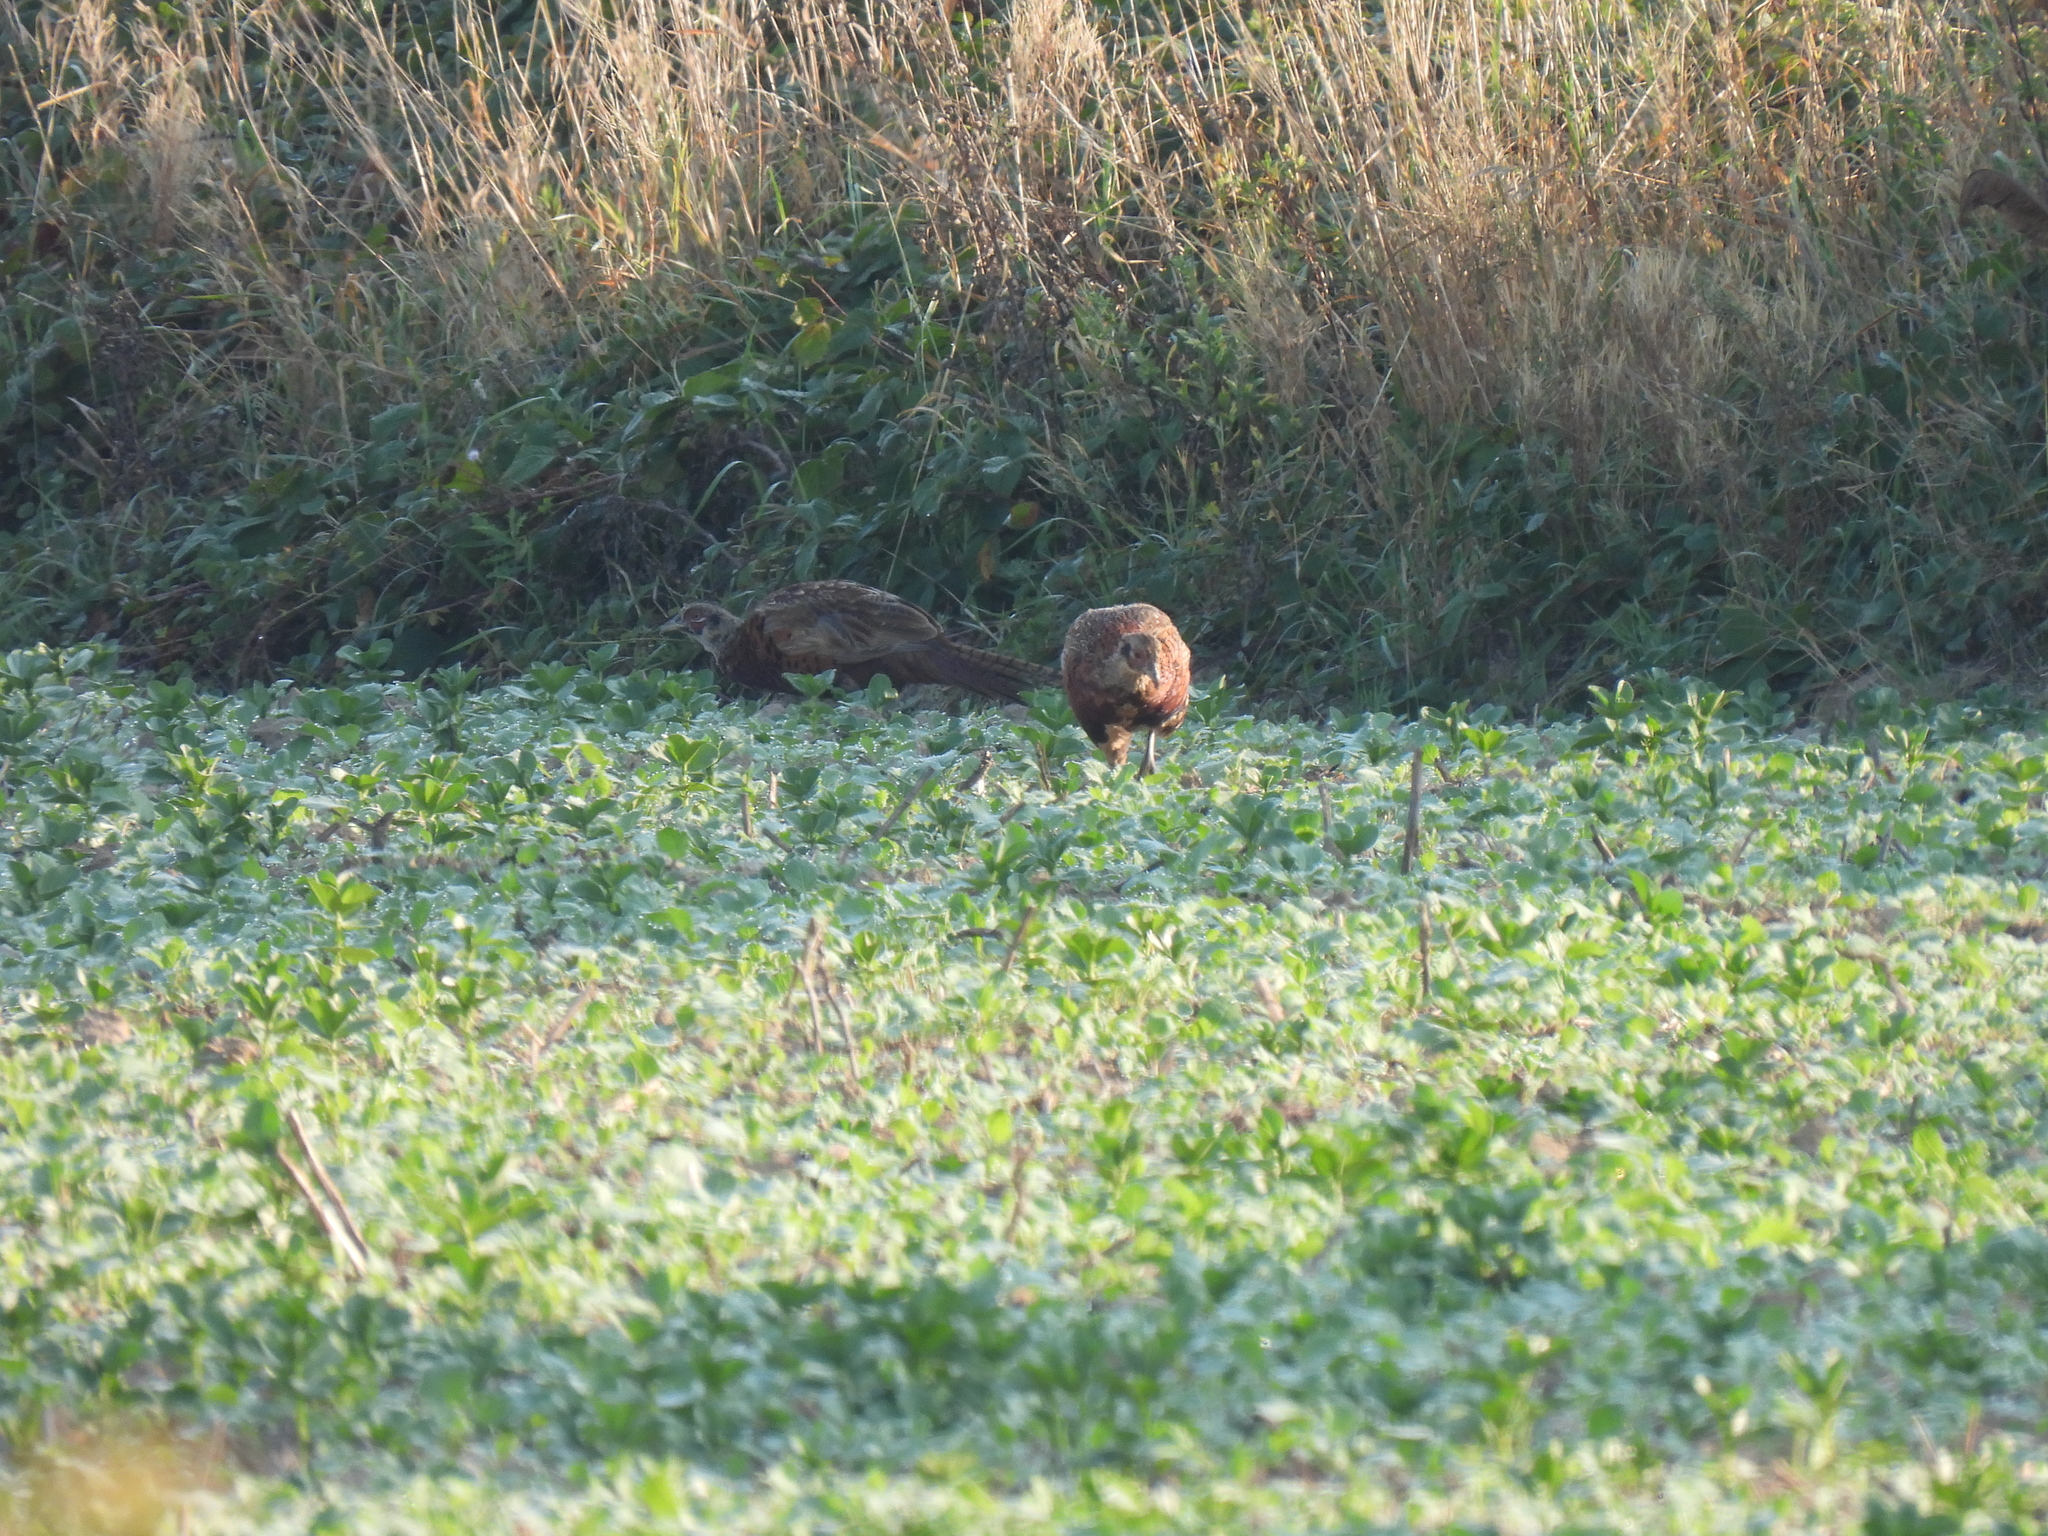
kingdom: Animalia
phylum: Chordata
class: Aves
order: Galliformes
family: Phasianidae
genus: Phasianus
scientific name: Phasianus colchicus
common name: Common pheasant
